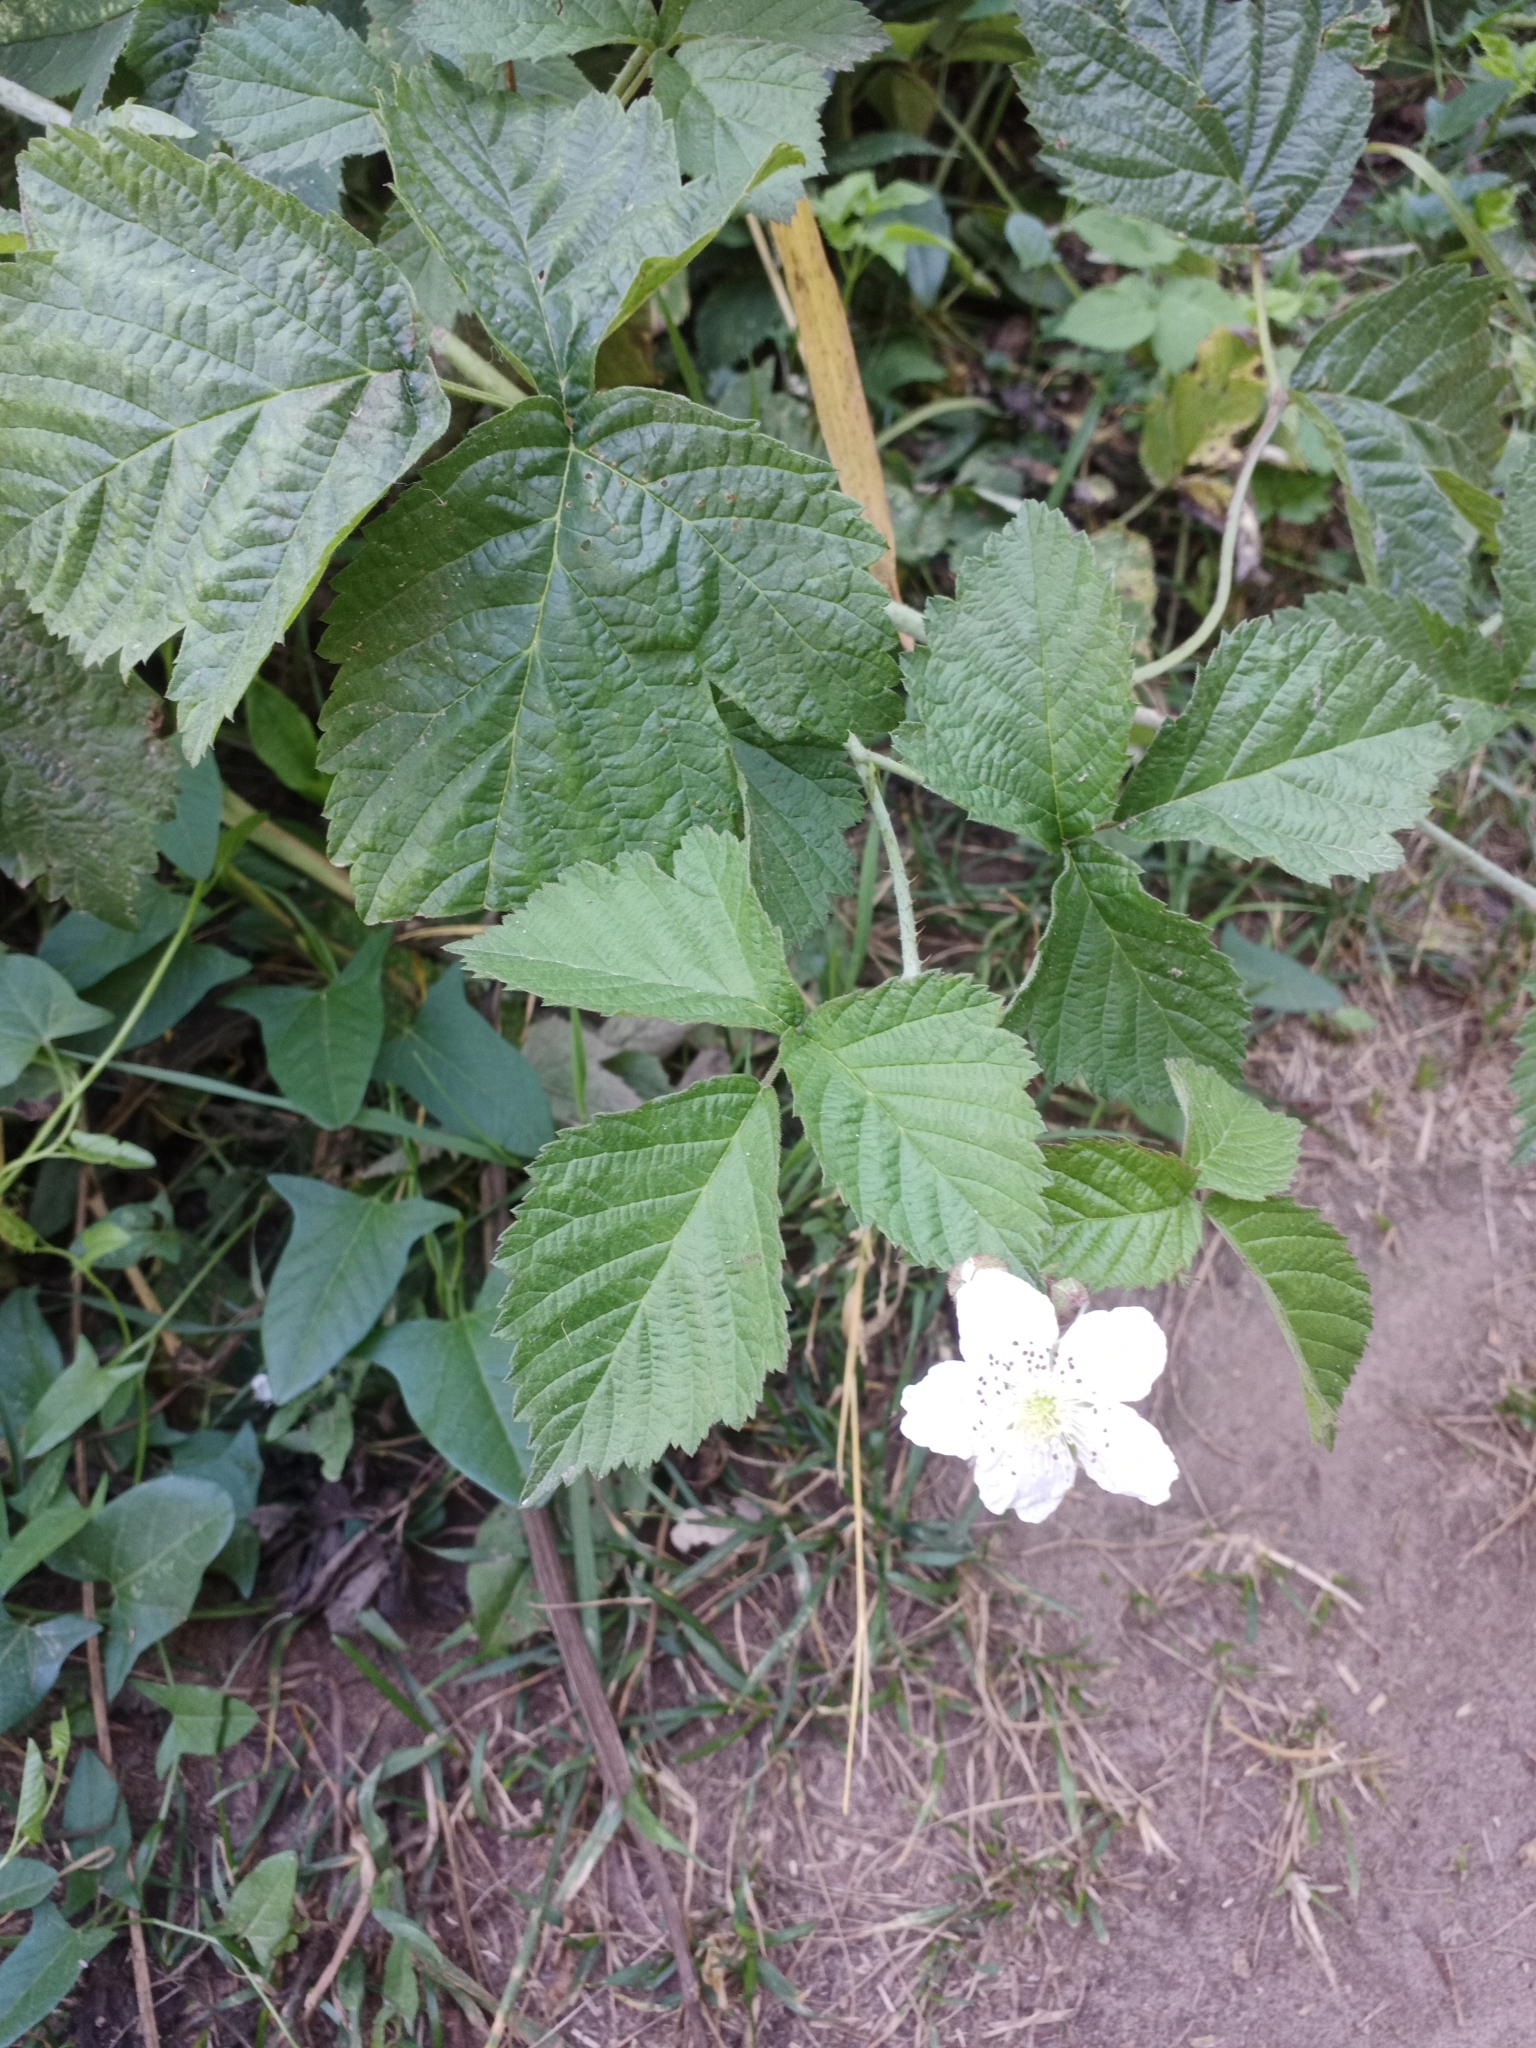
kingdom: Plantae
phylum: Tracheophyta
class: Magnoliopsida
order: Rosales
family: Rosaceae
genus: Rubus
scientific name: Rubus caesius
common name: Dewberry
